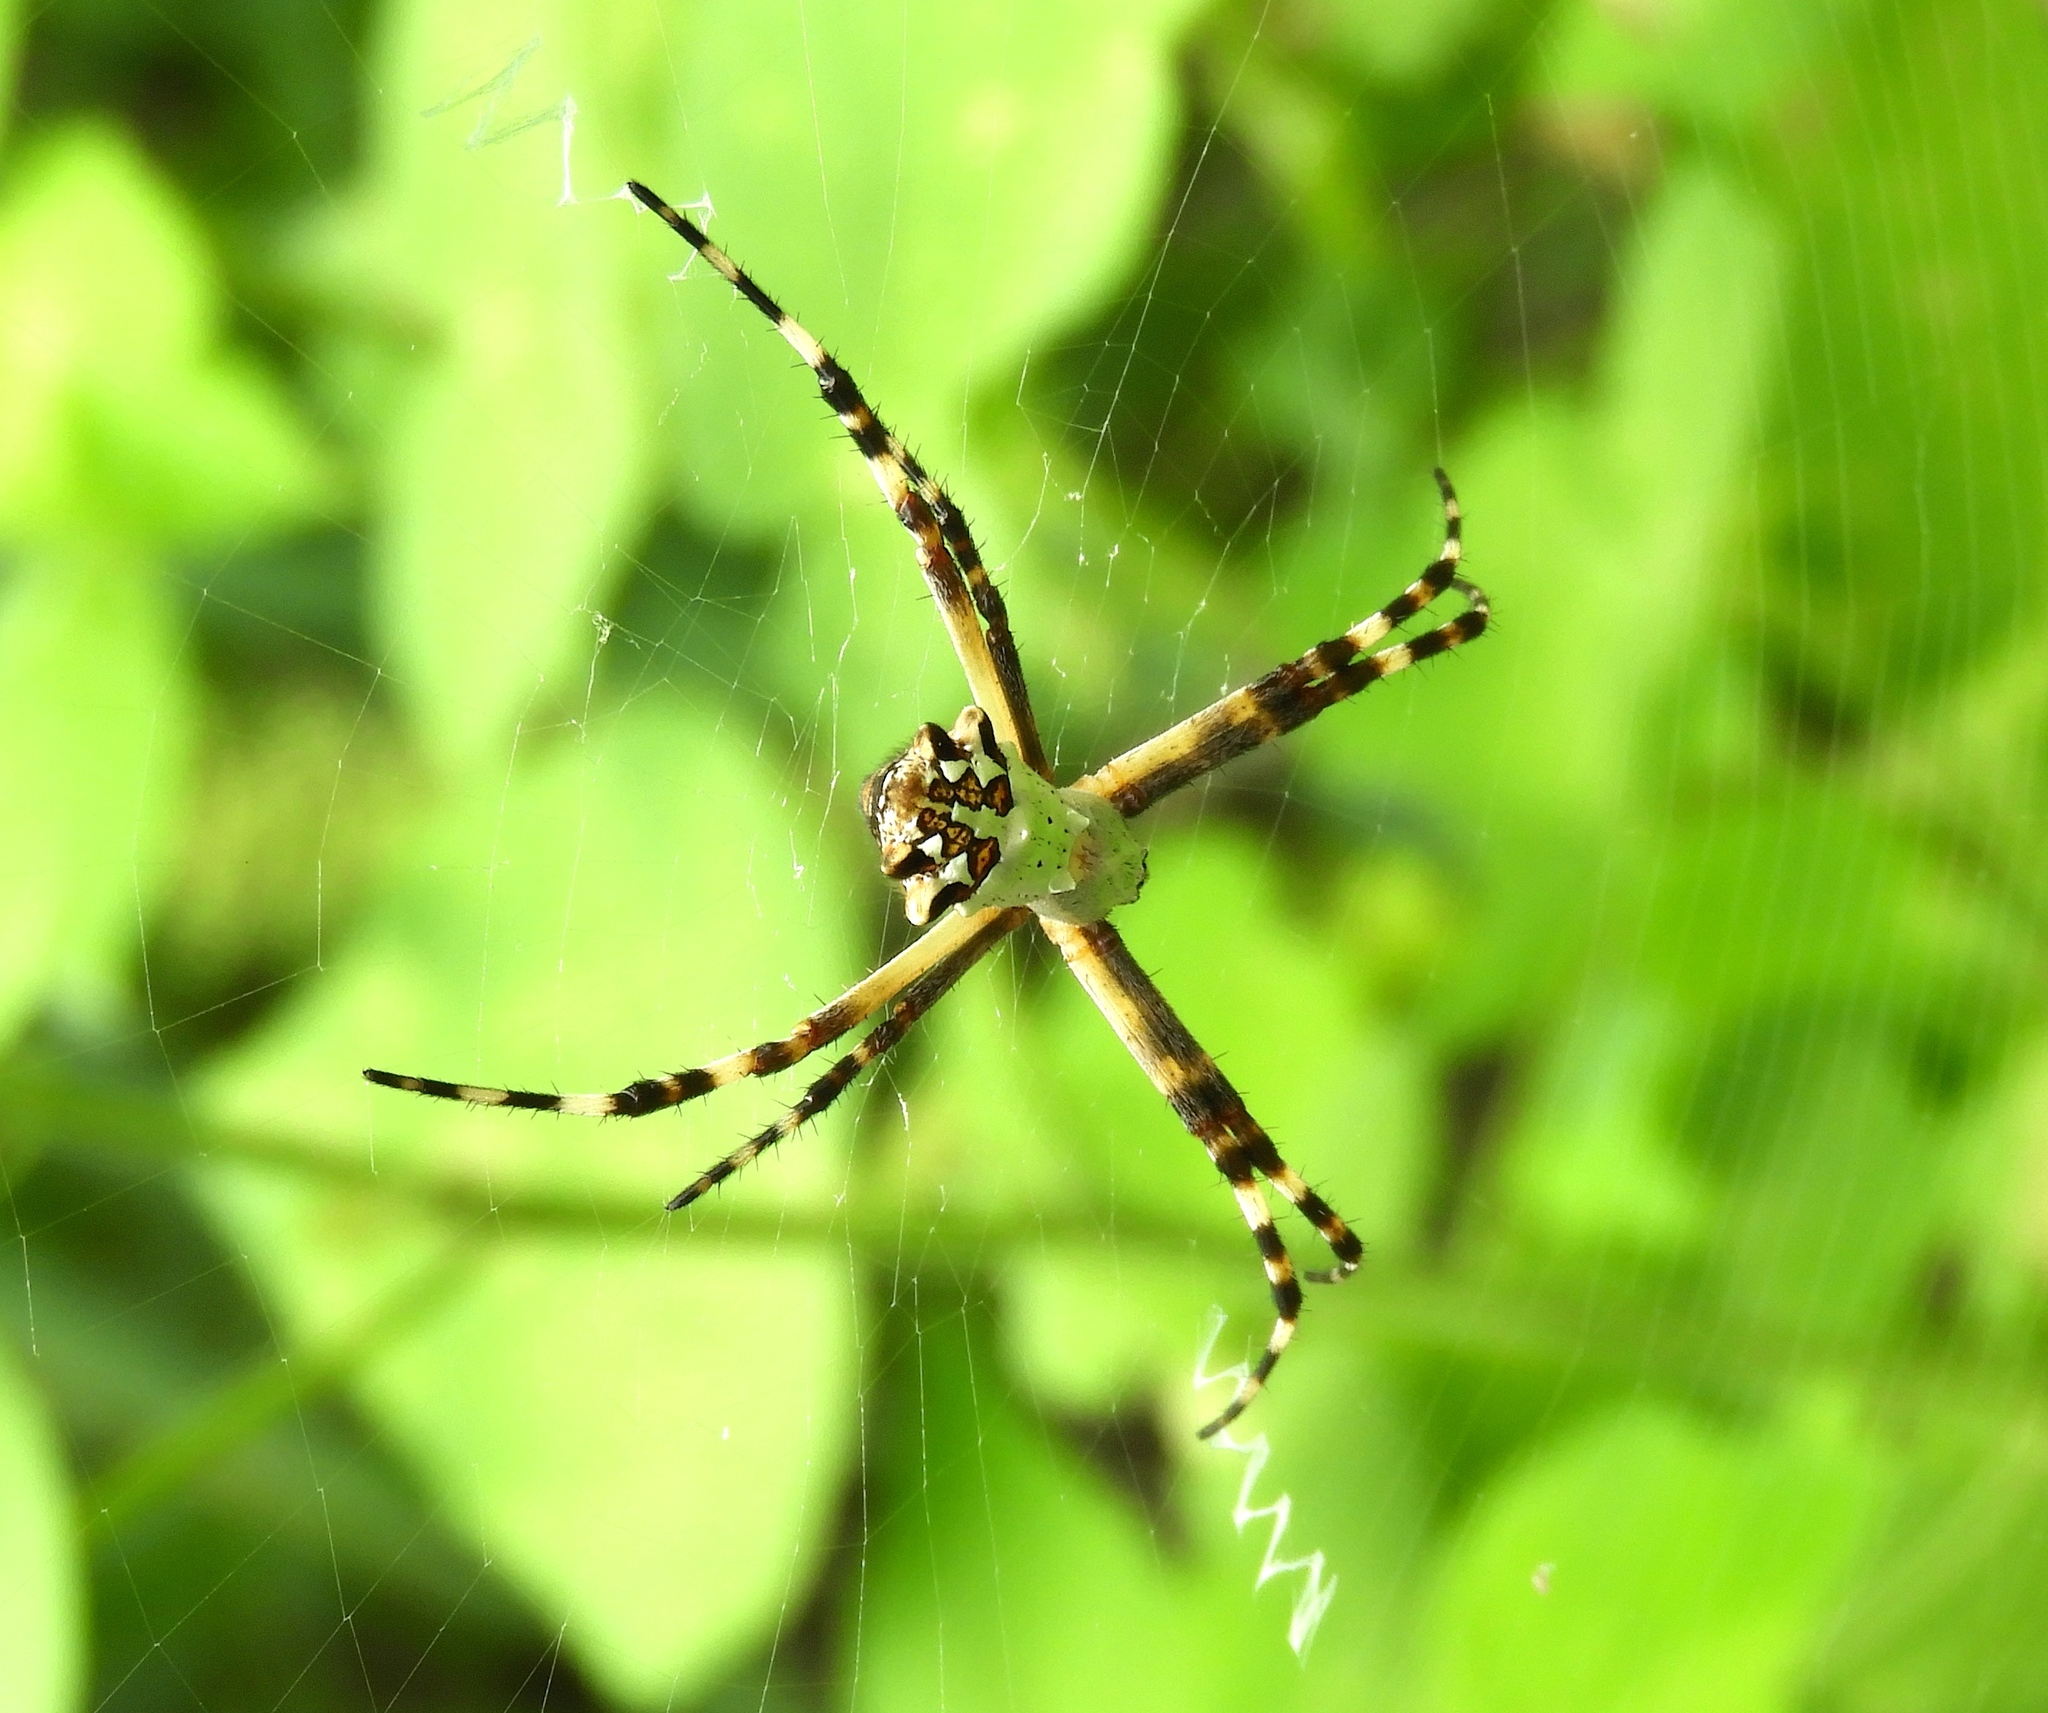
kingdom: Animalia
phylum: Arthropoda
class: Arachnida
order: Araneae
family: Araneidae
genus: Argiope
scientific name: Argiope argentata
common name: Orb weavers
